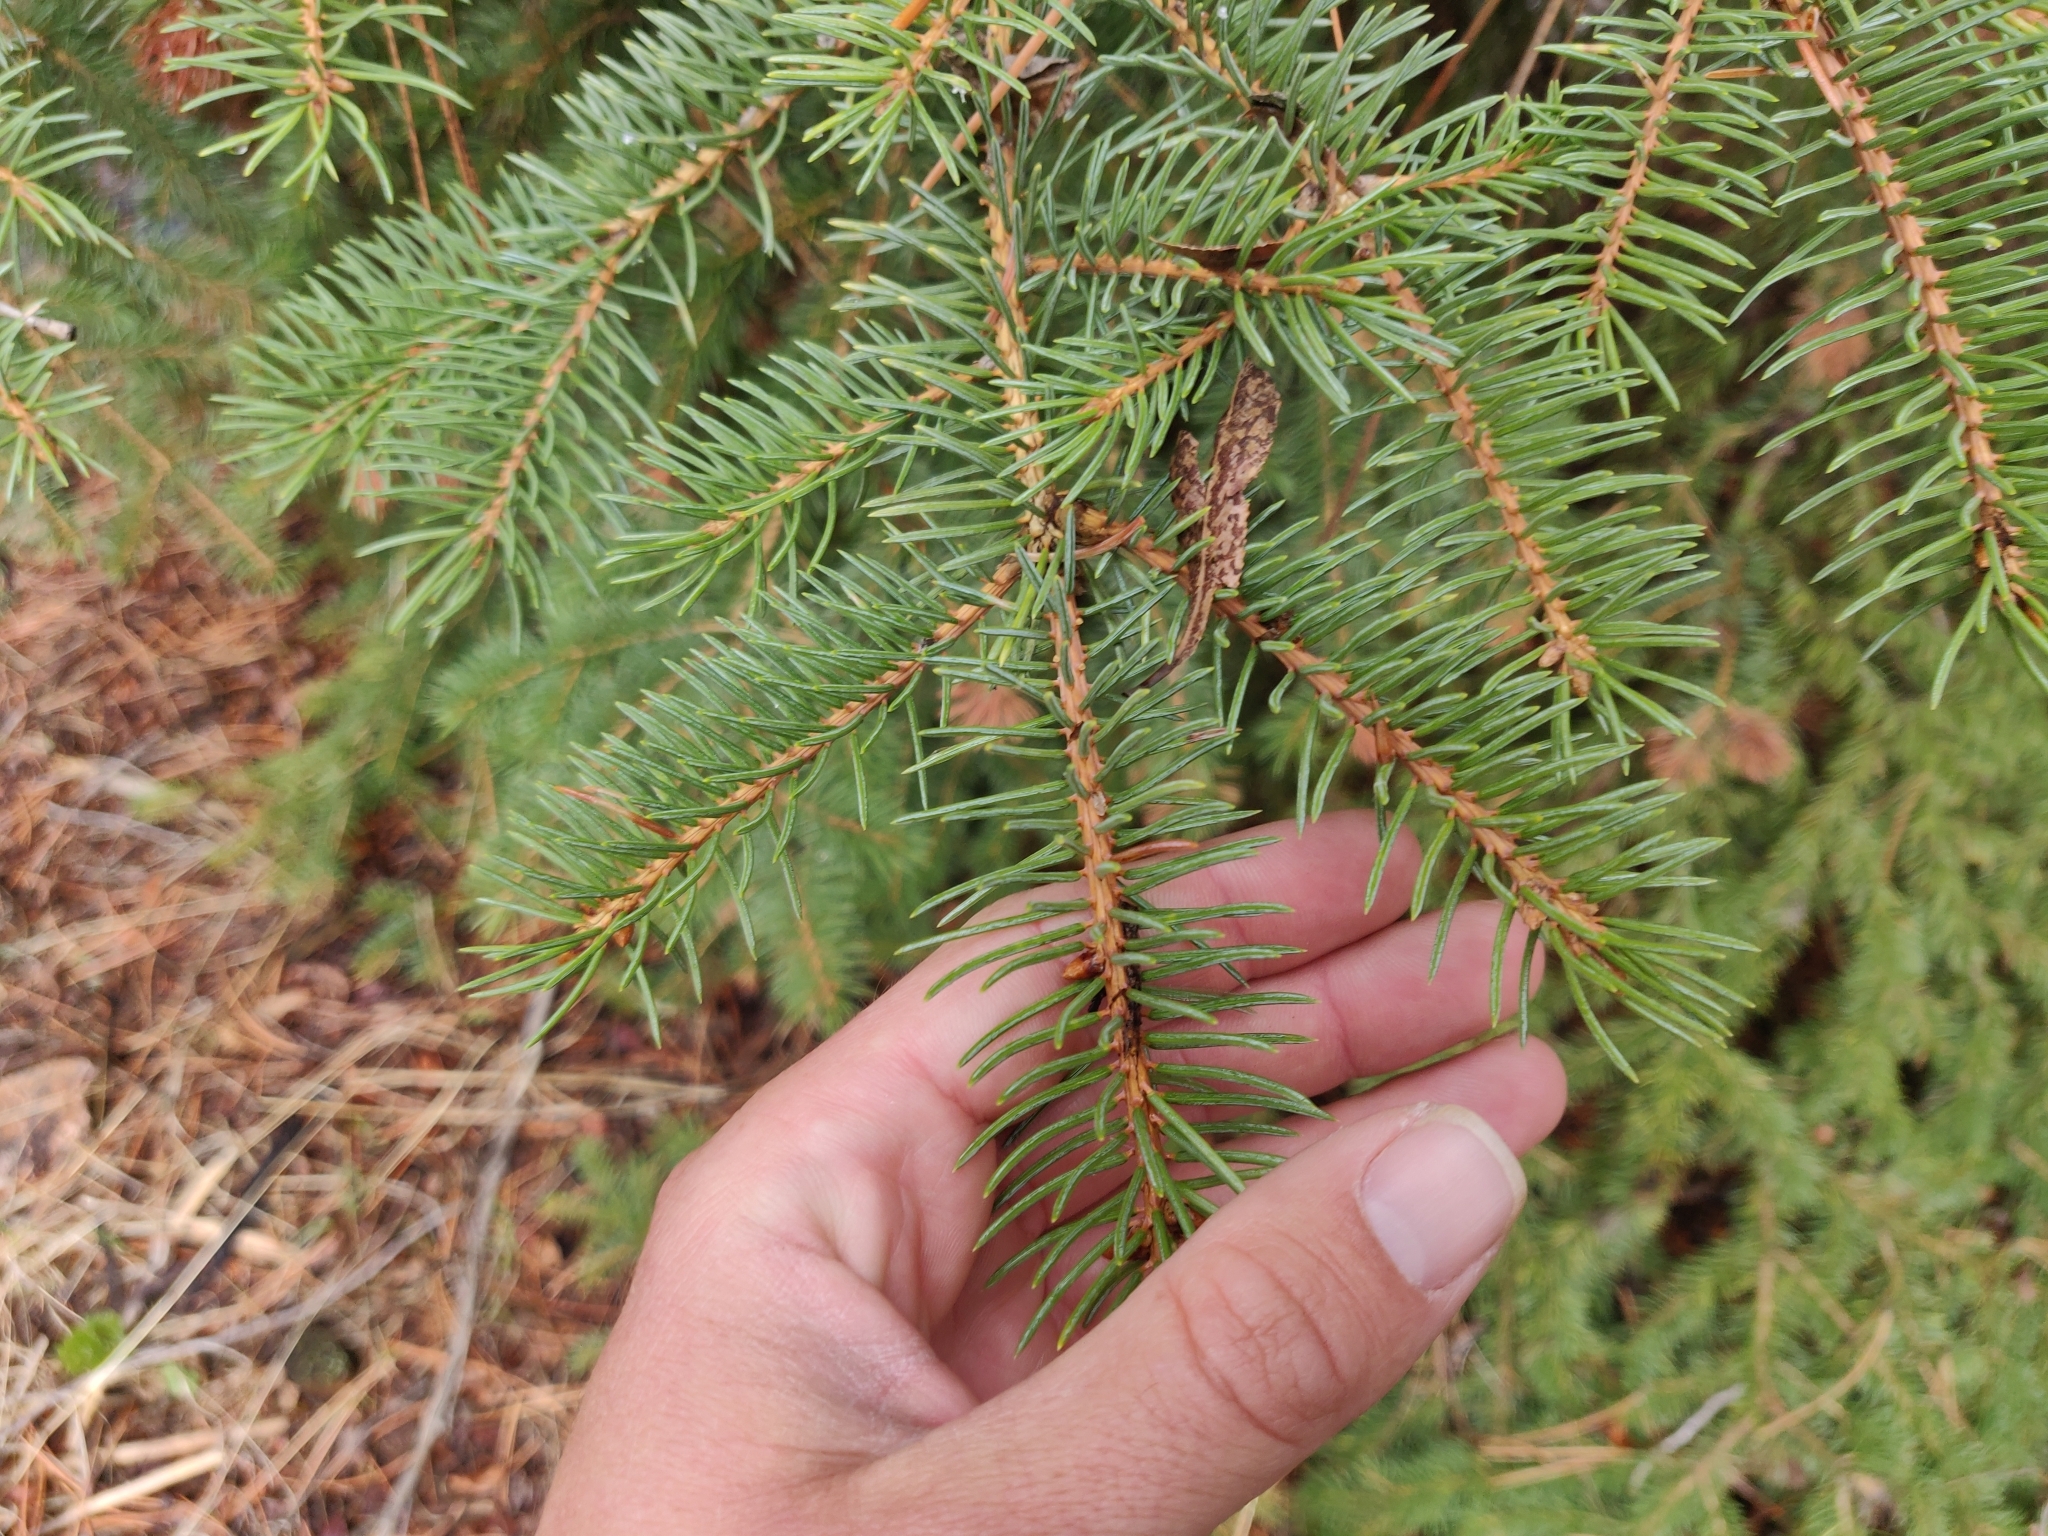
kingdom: Plantae
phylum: Tracheophyta
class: Pinopsida
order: Pinales
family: Pinaceae
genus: Picea
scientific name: Picea engelmannii
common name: Engelmann spruce
